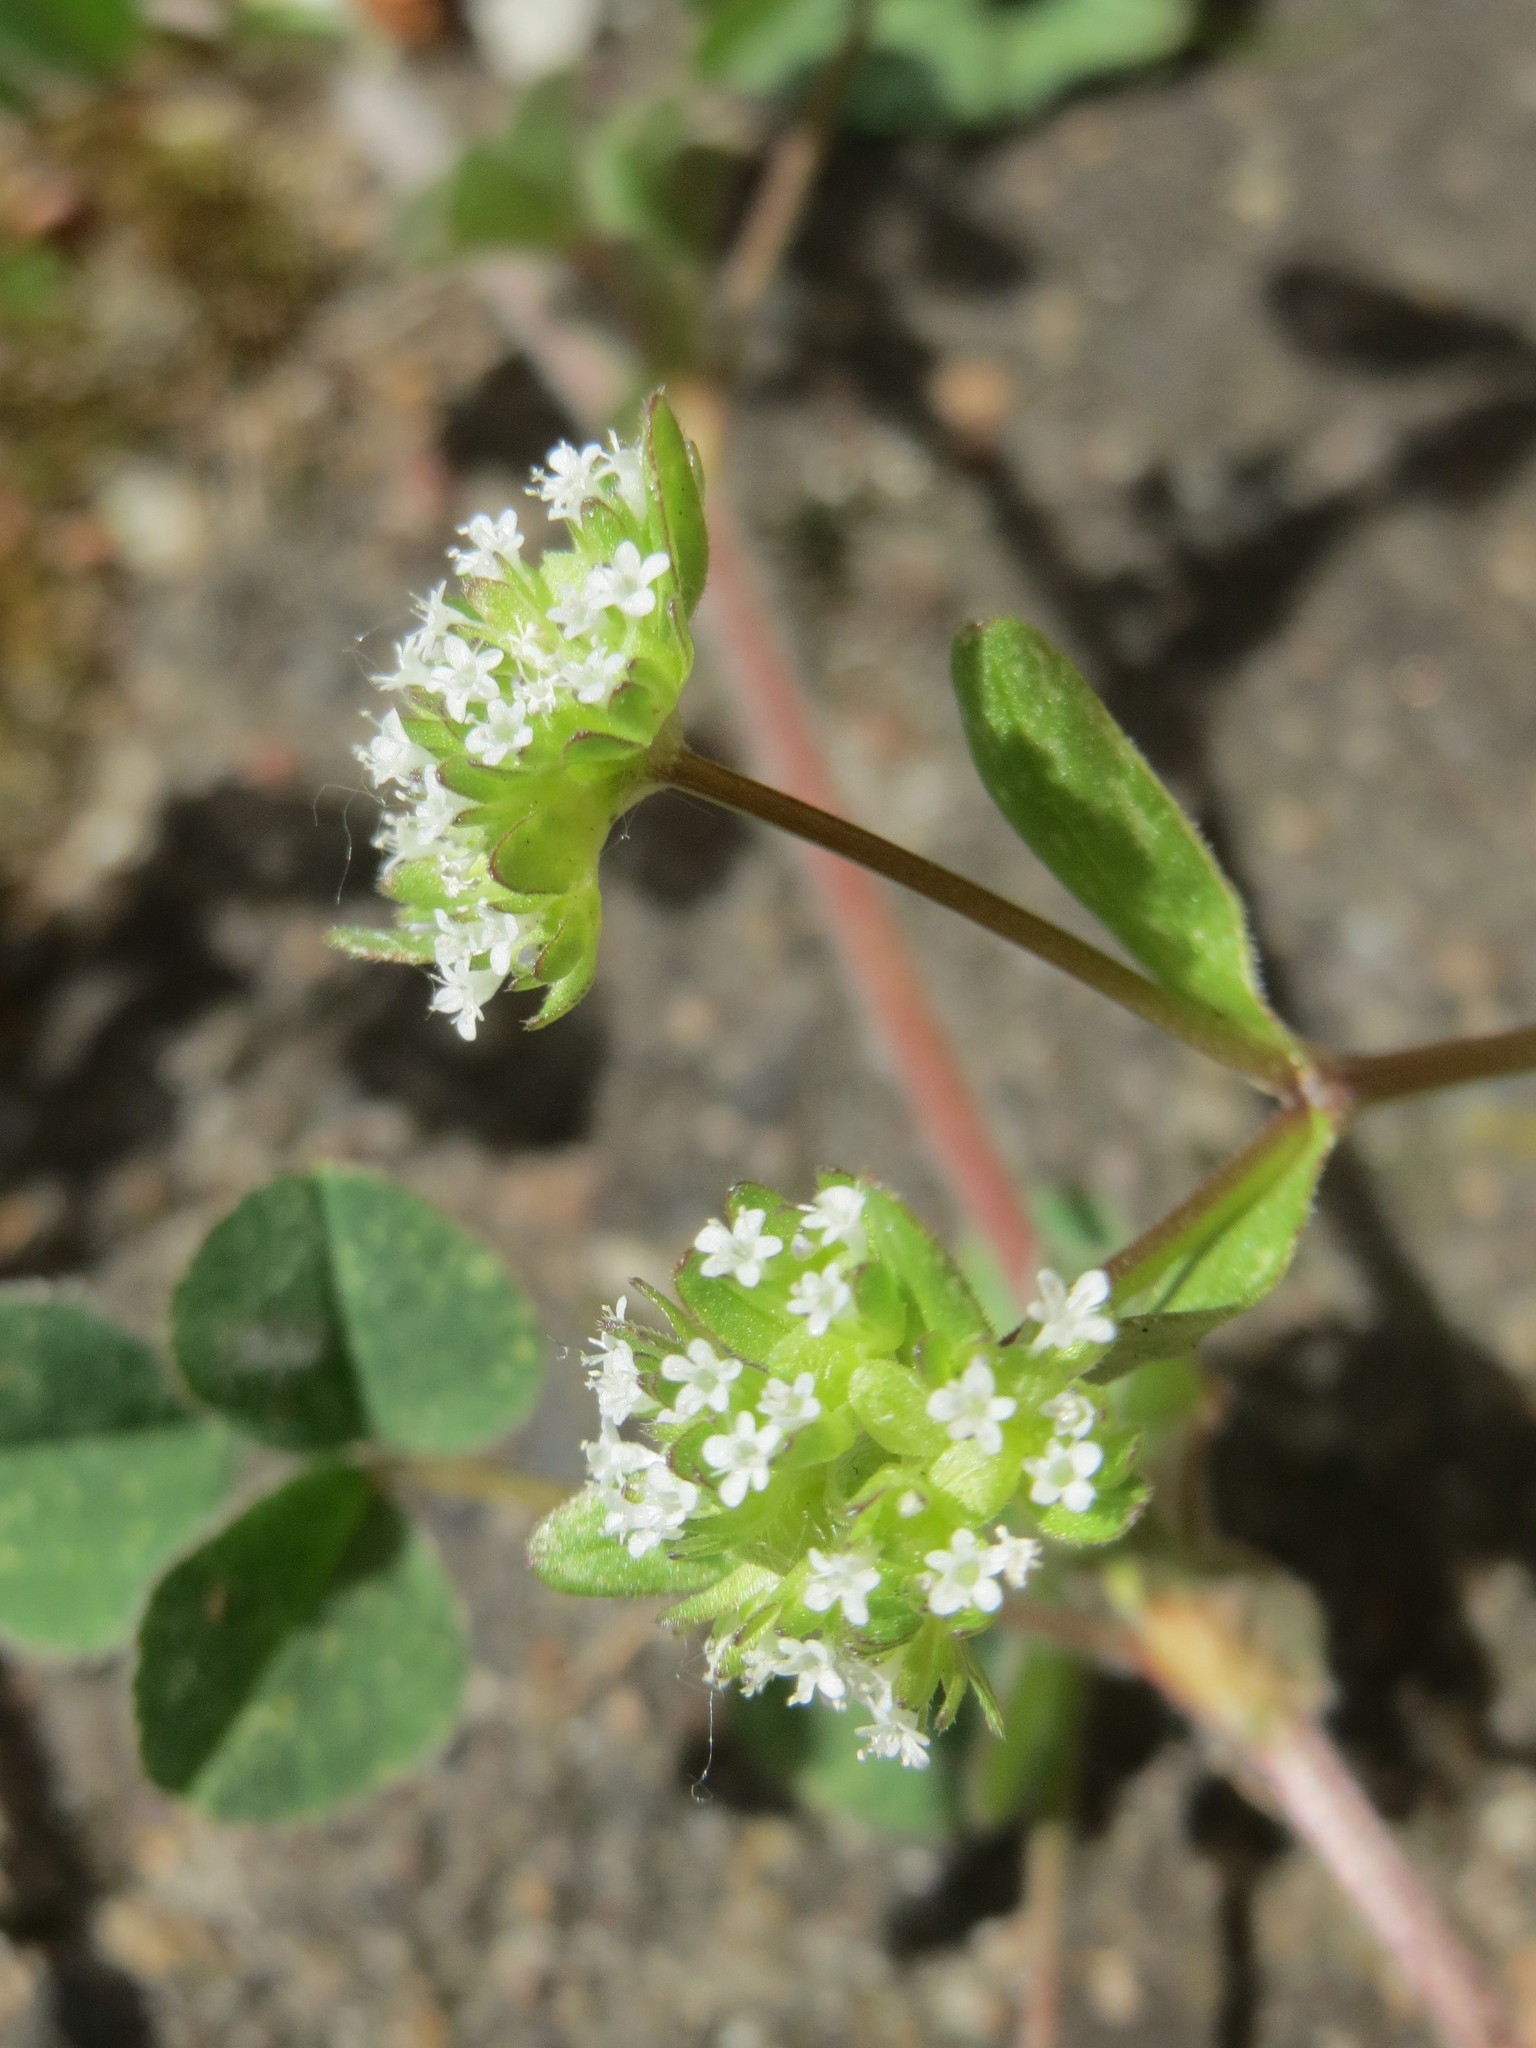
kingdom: Plantae
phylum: Tracheophyta
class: Magnoliopsida
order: Dipsacales
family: Caprifoliaceae
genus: Valerianella
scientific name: Valerianella locusta
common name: Common cornsalad
